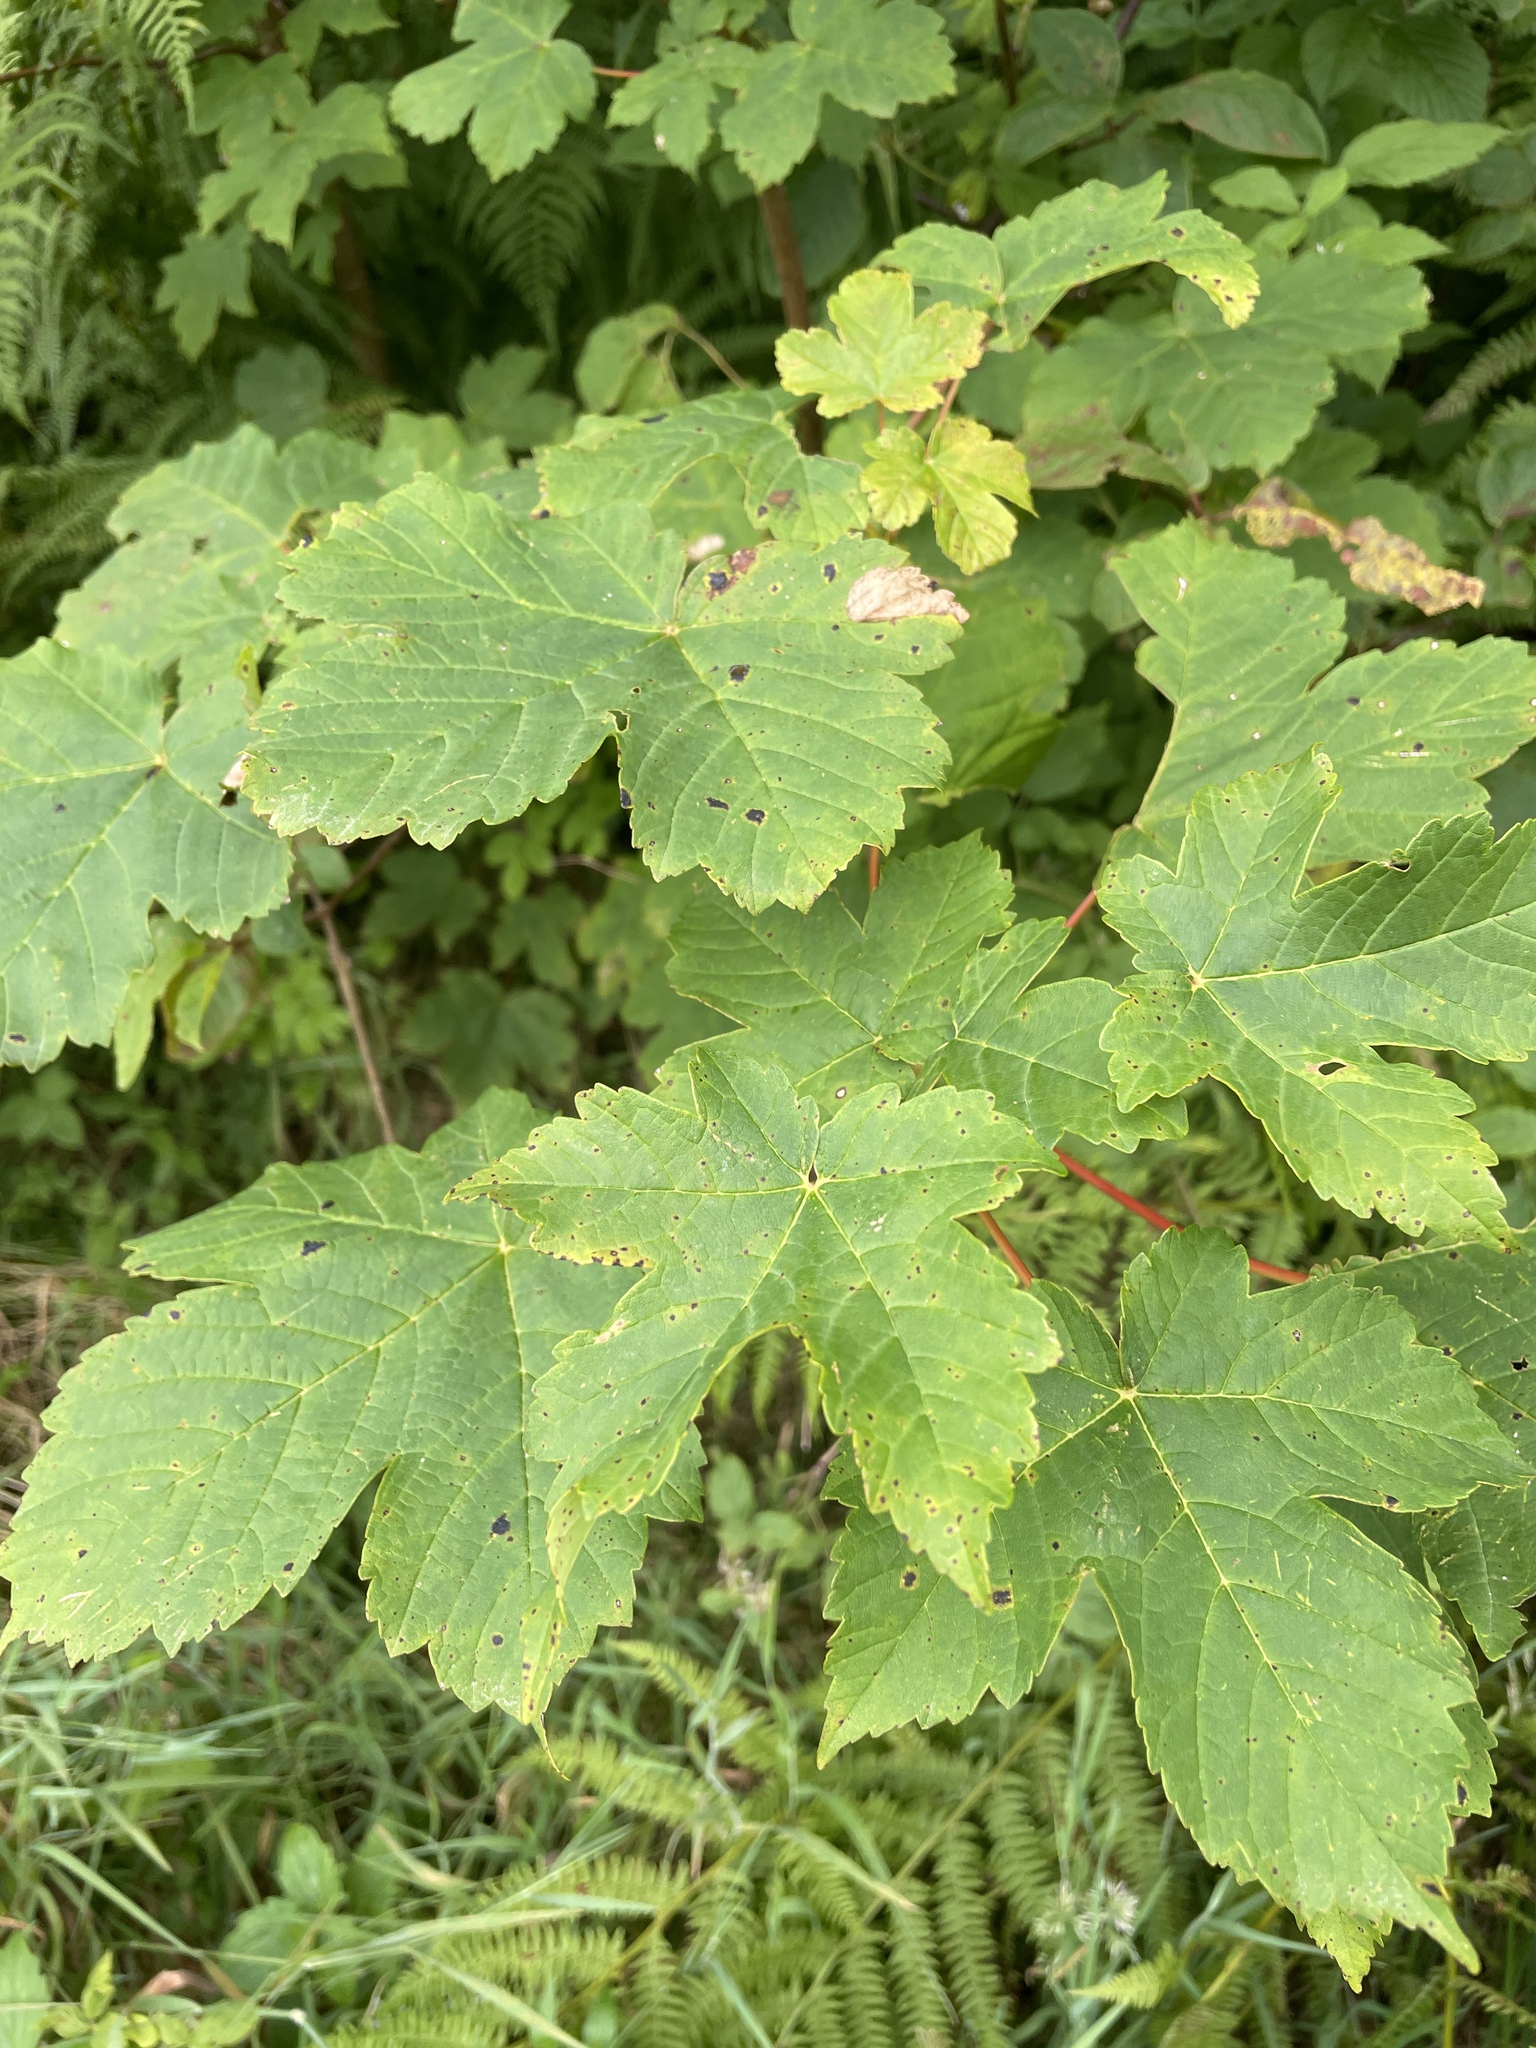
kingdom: Plantae
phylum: Tracheophyta
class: Magnoliopsida
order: Sapindales
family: Sapindaceae
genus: Acer
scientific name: Acer pseudoplatanus
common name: Sycamore
